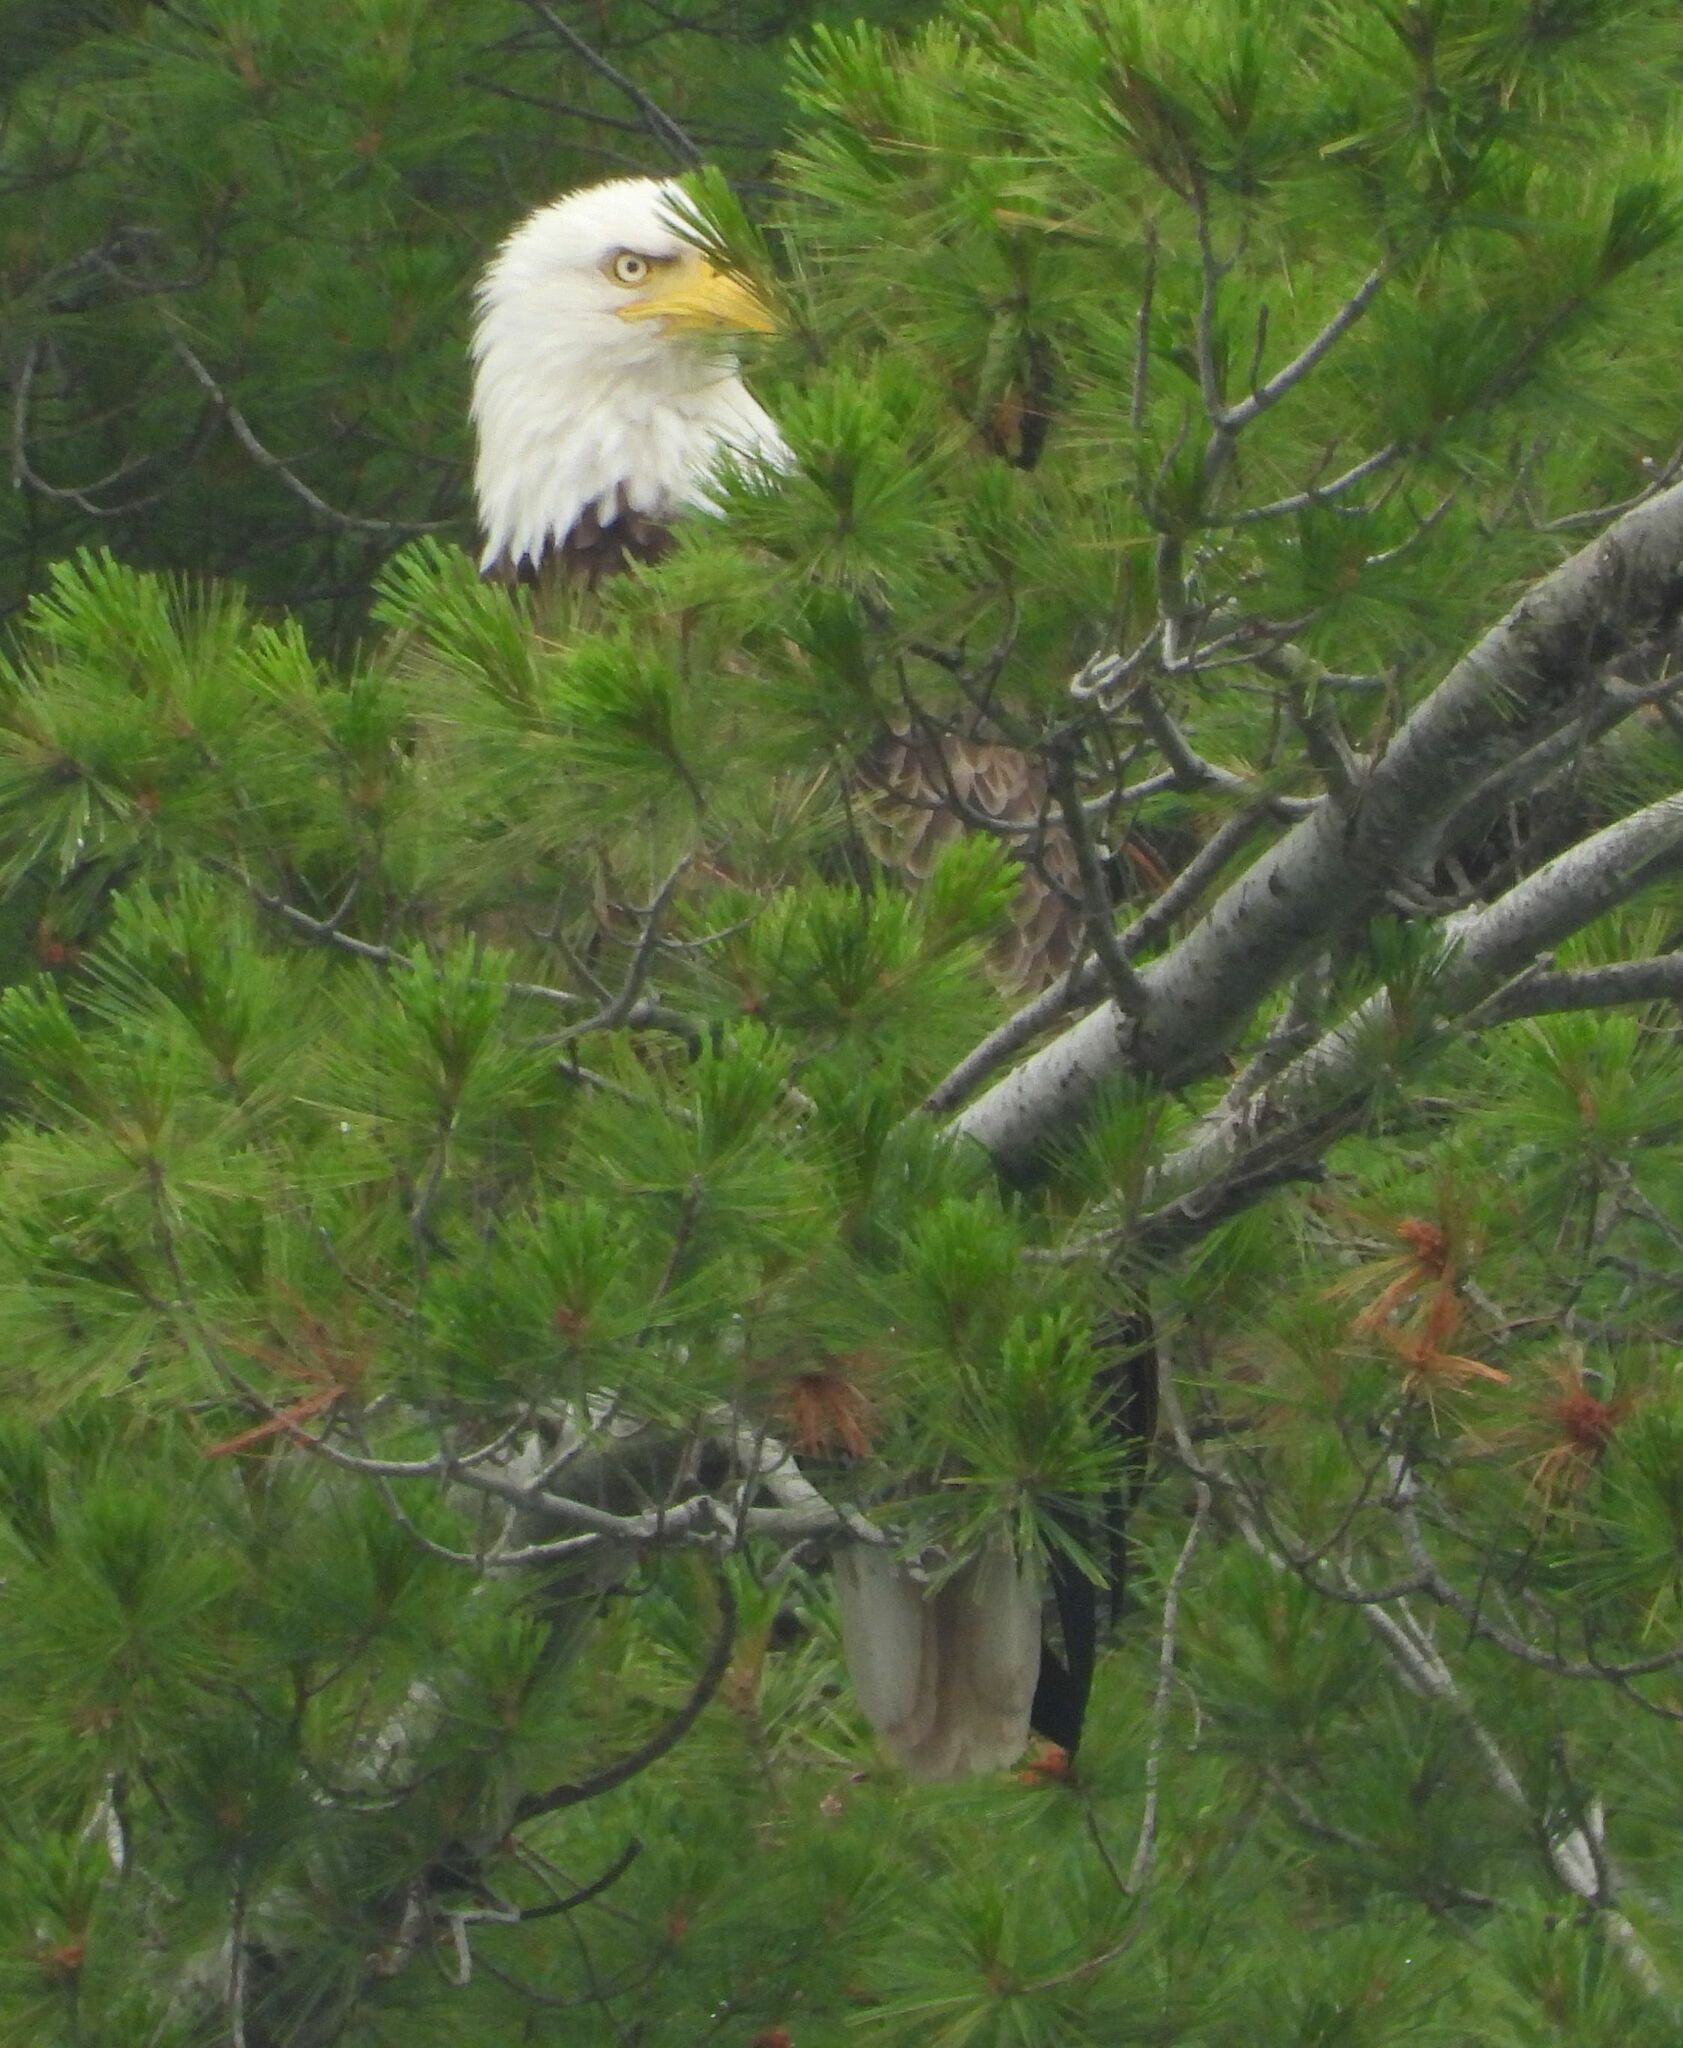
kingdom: Animalia
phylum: Chordata
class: Aves
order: Accipitriformes
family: Accipitridae
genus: Haliaeetus
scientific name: Haliaeetus leucocephalus
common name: Bald eagle
